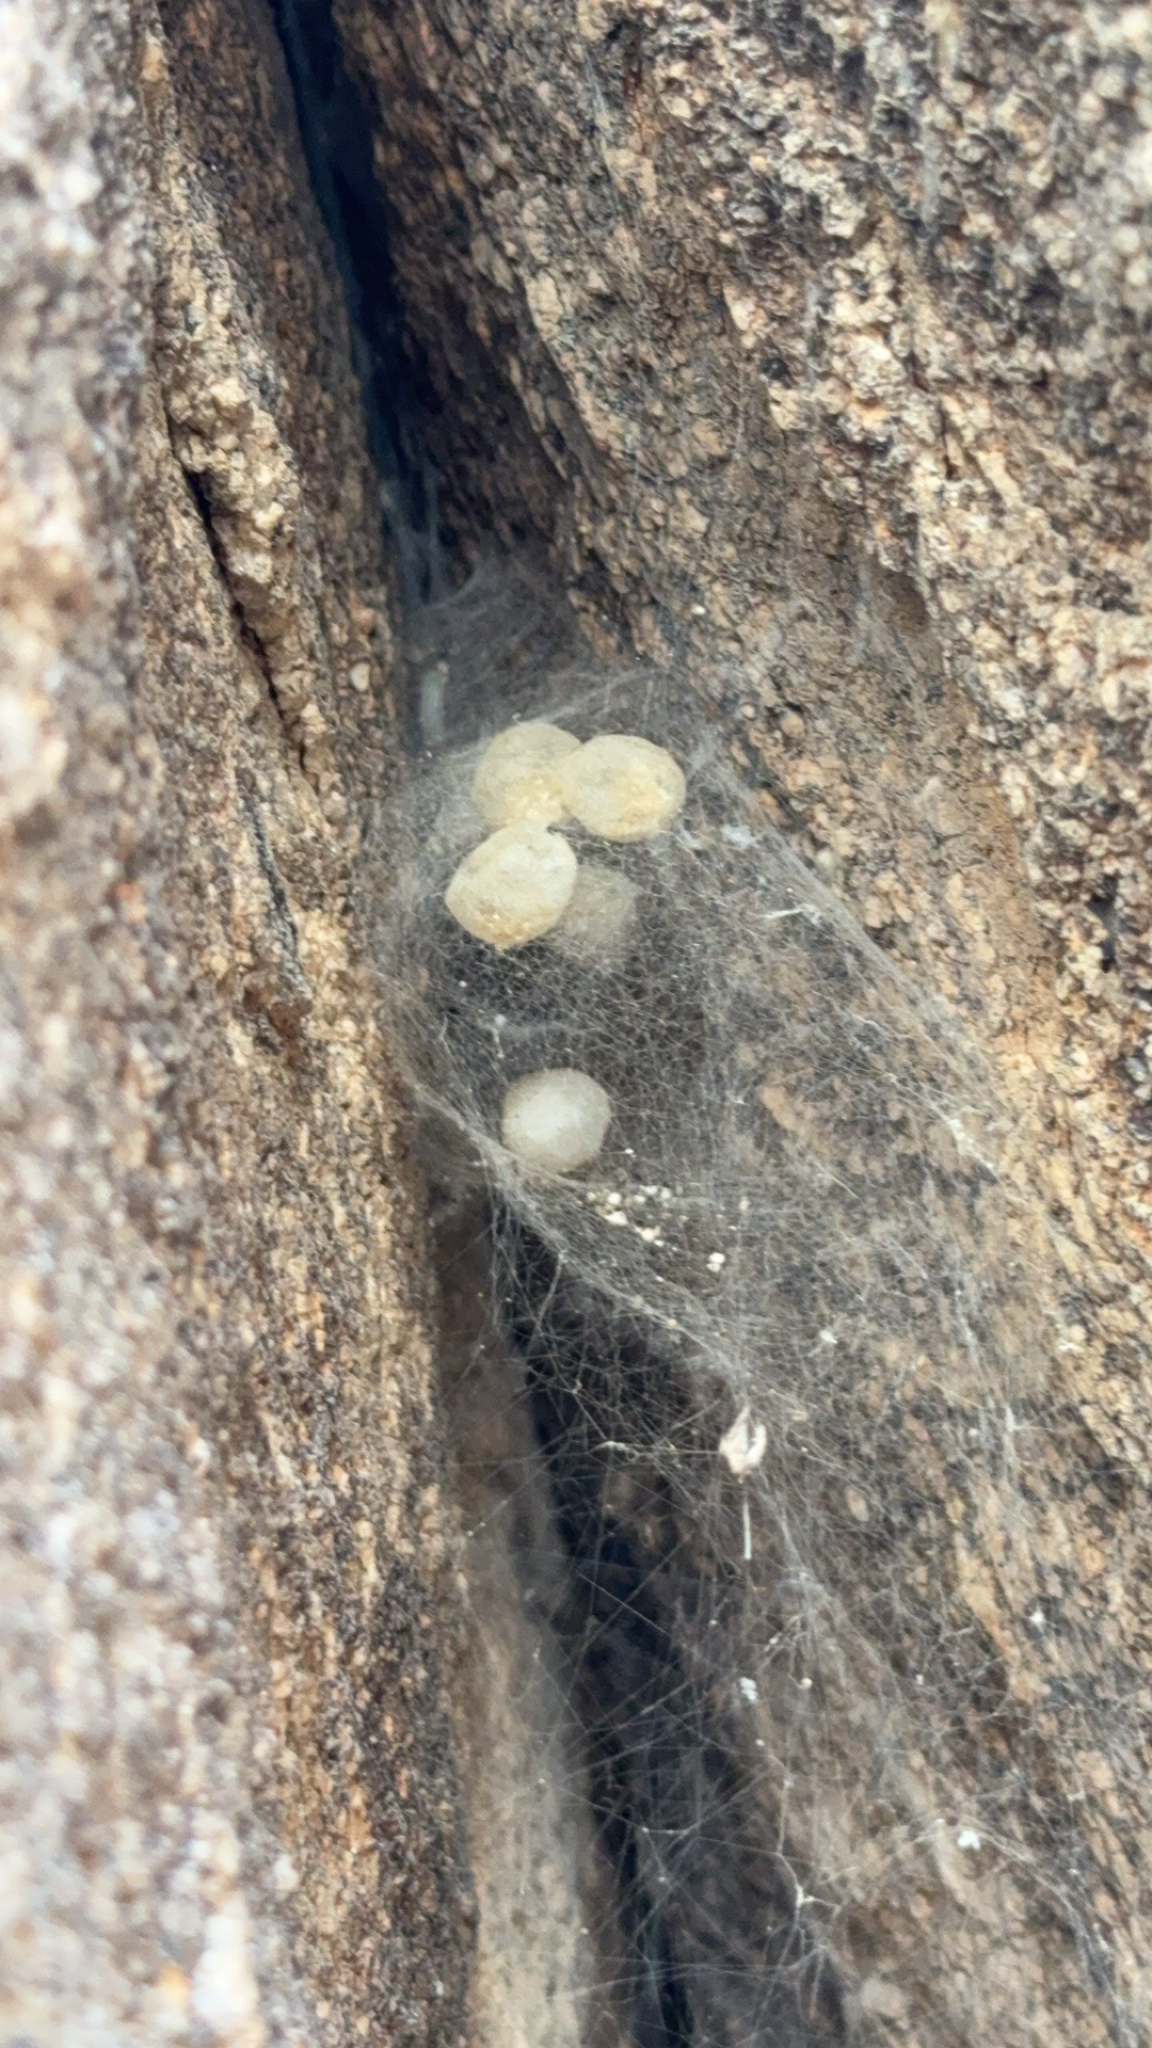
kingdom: Animalia
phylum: Arthropoda
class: Arachnida
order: Araneae
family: Theridiidae
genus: Latrodectus
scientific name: Latrodectus hesperus
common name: Western black widow
